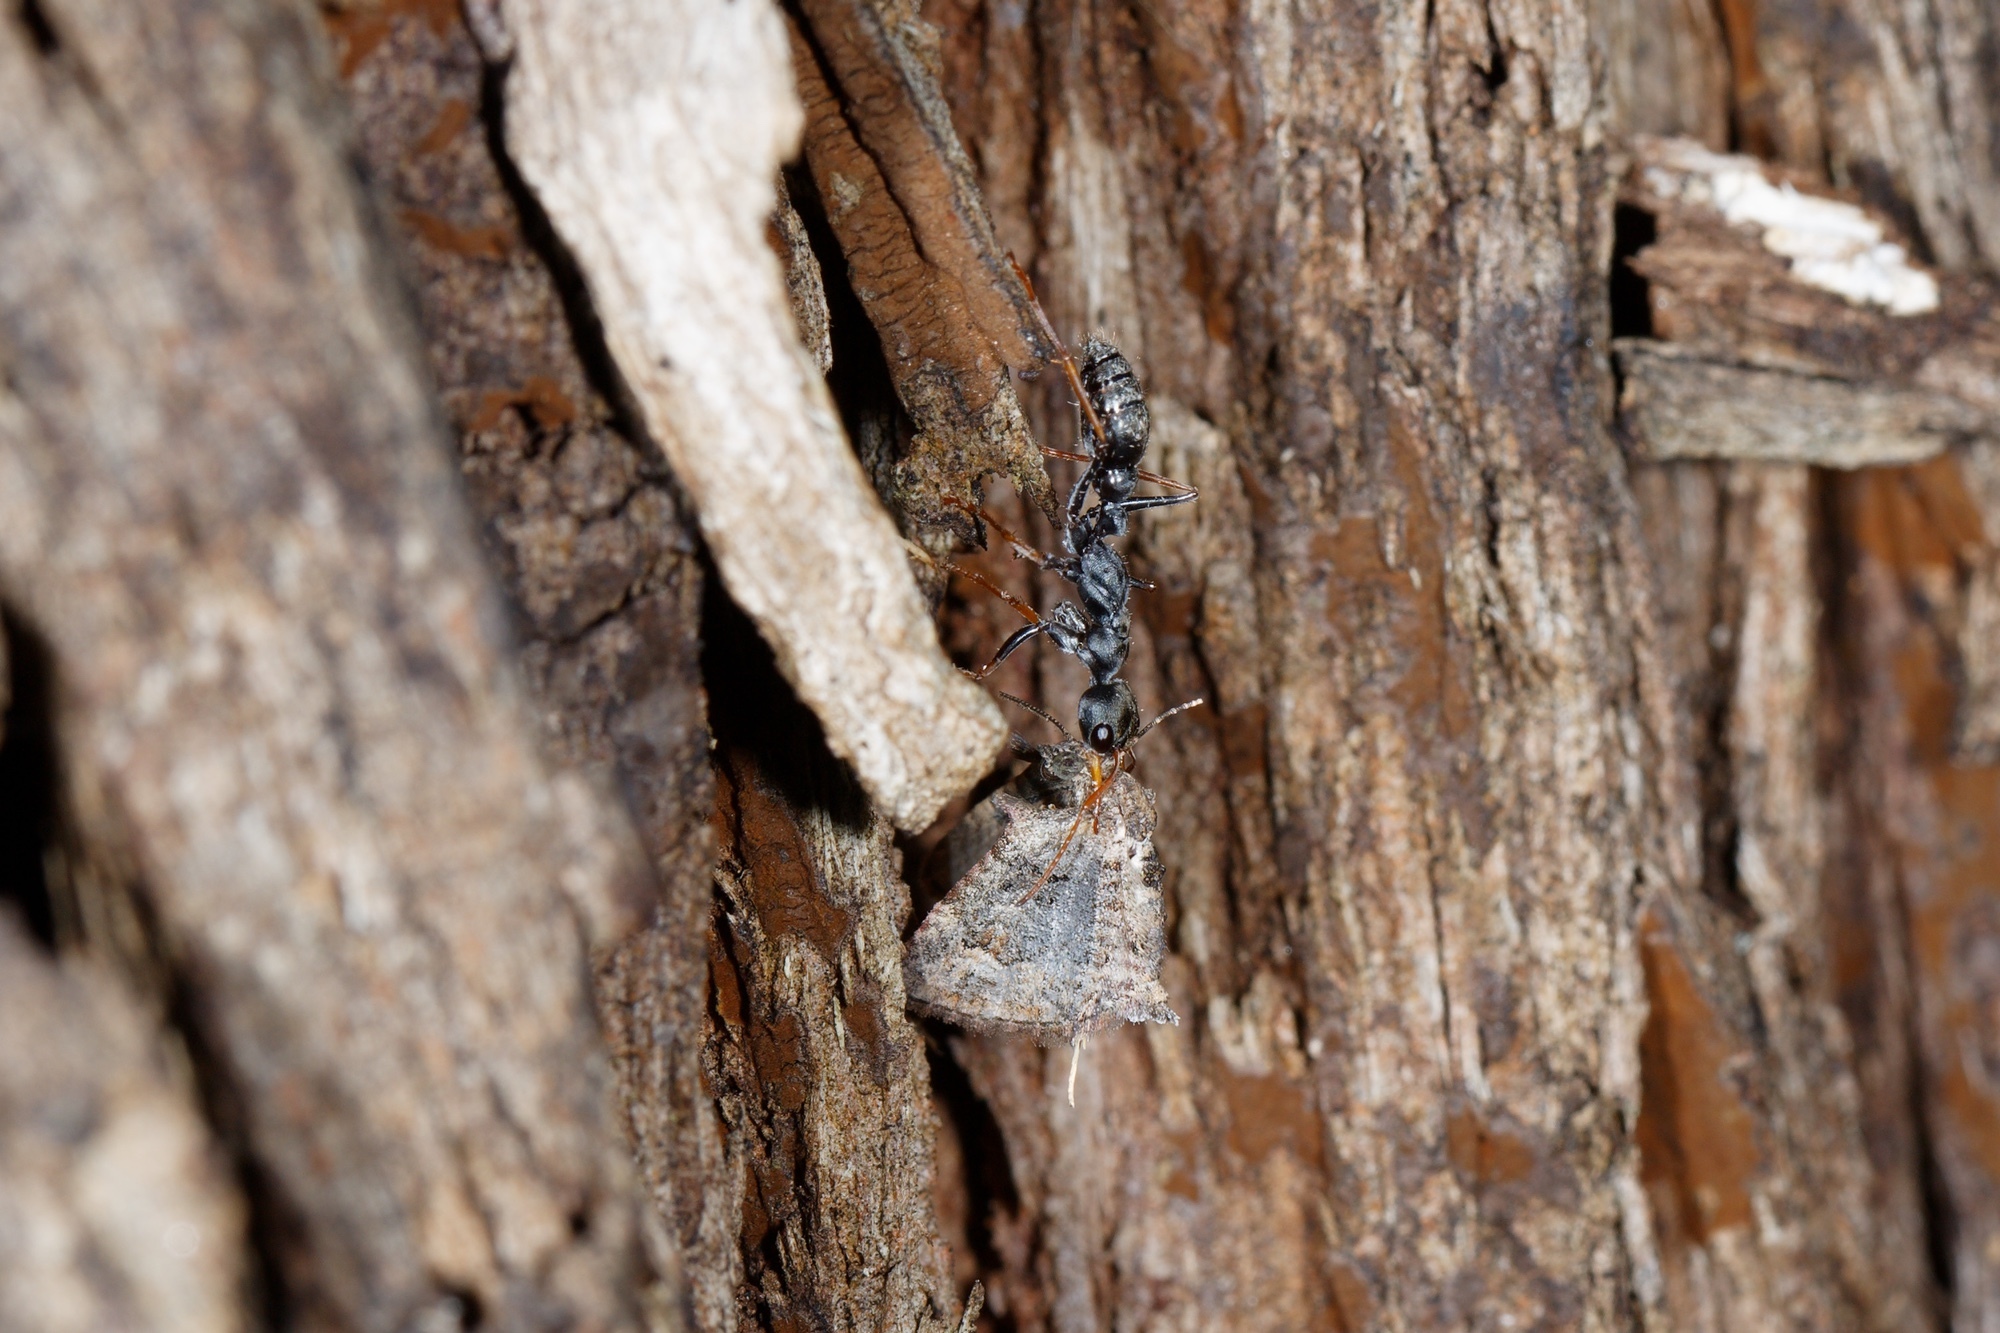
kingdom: Animalia
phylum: Arthropoda
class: Insecta
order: Hymenoptera
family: Formicidae
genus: Myrmecia
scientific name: Myrmecia pilosula
